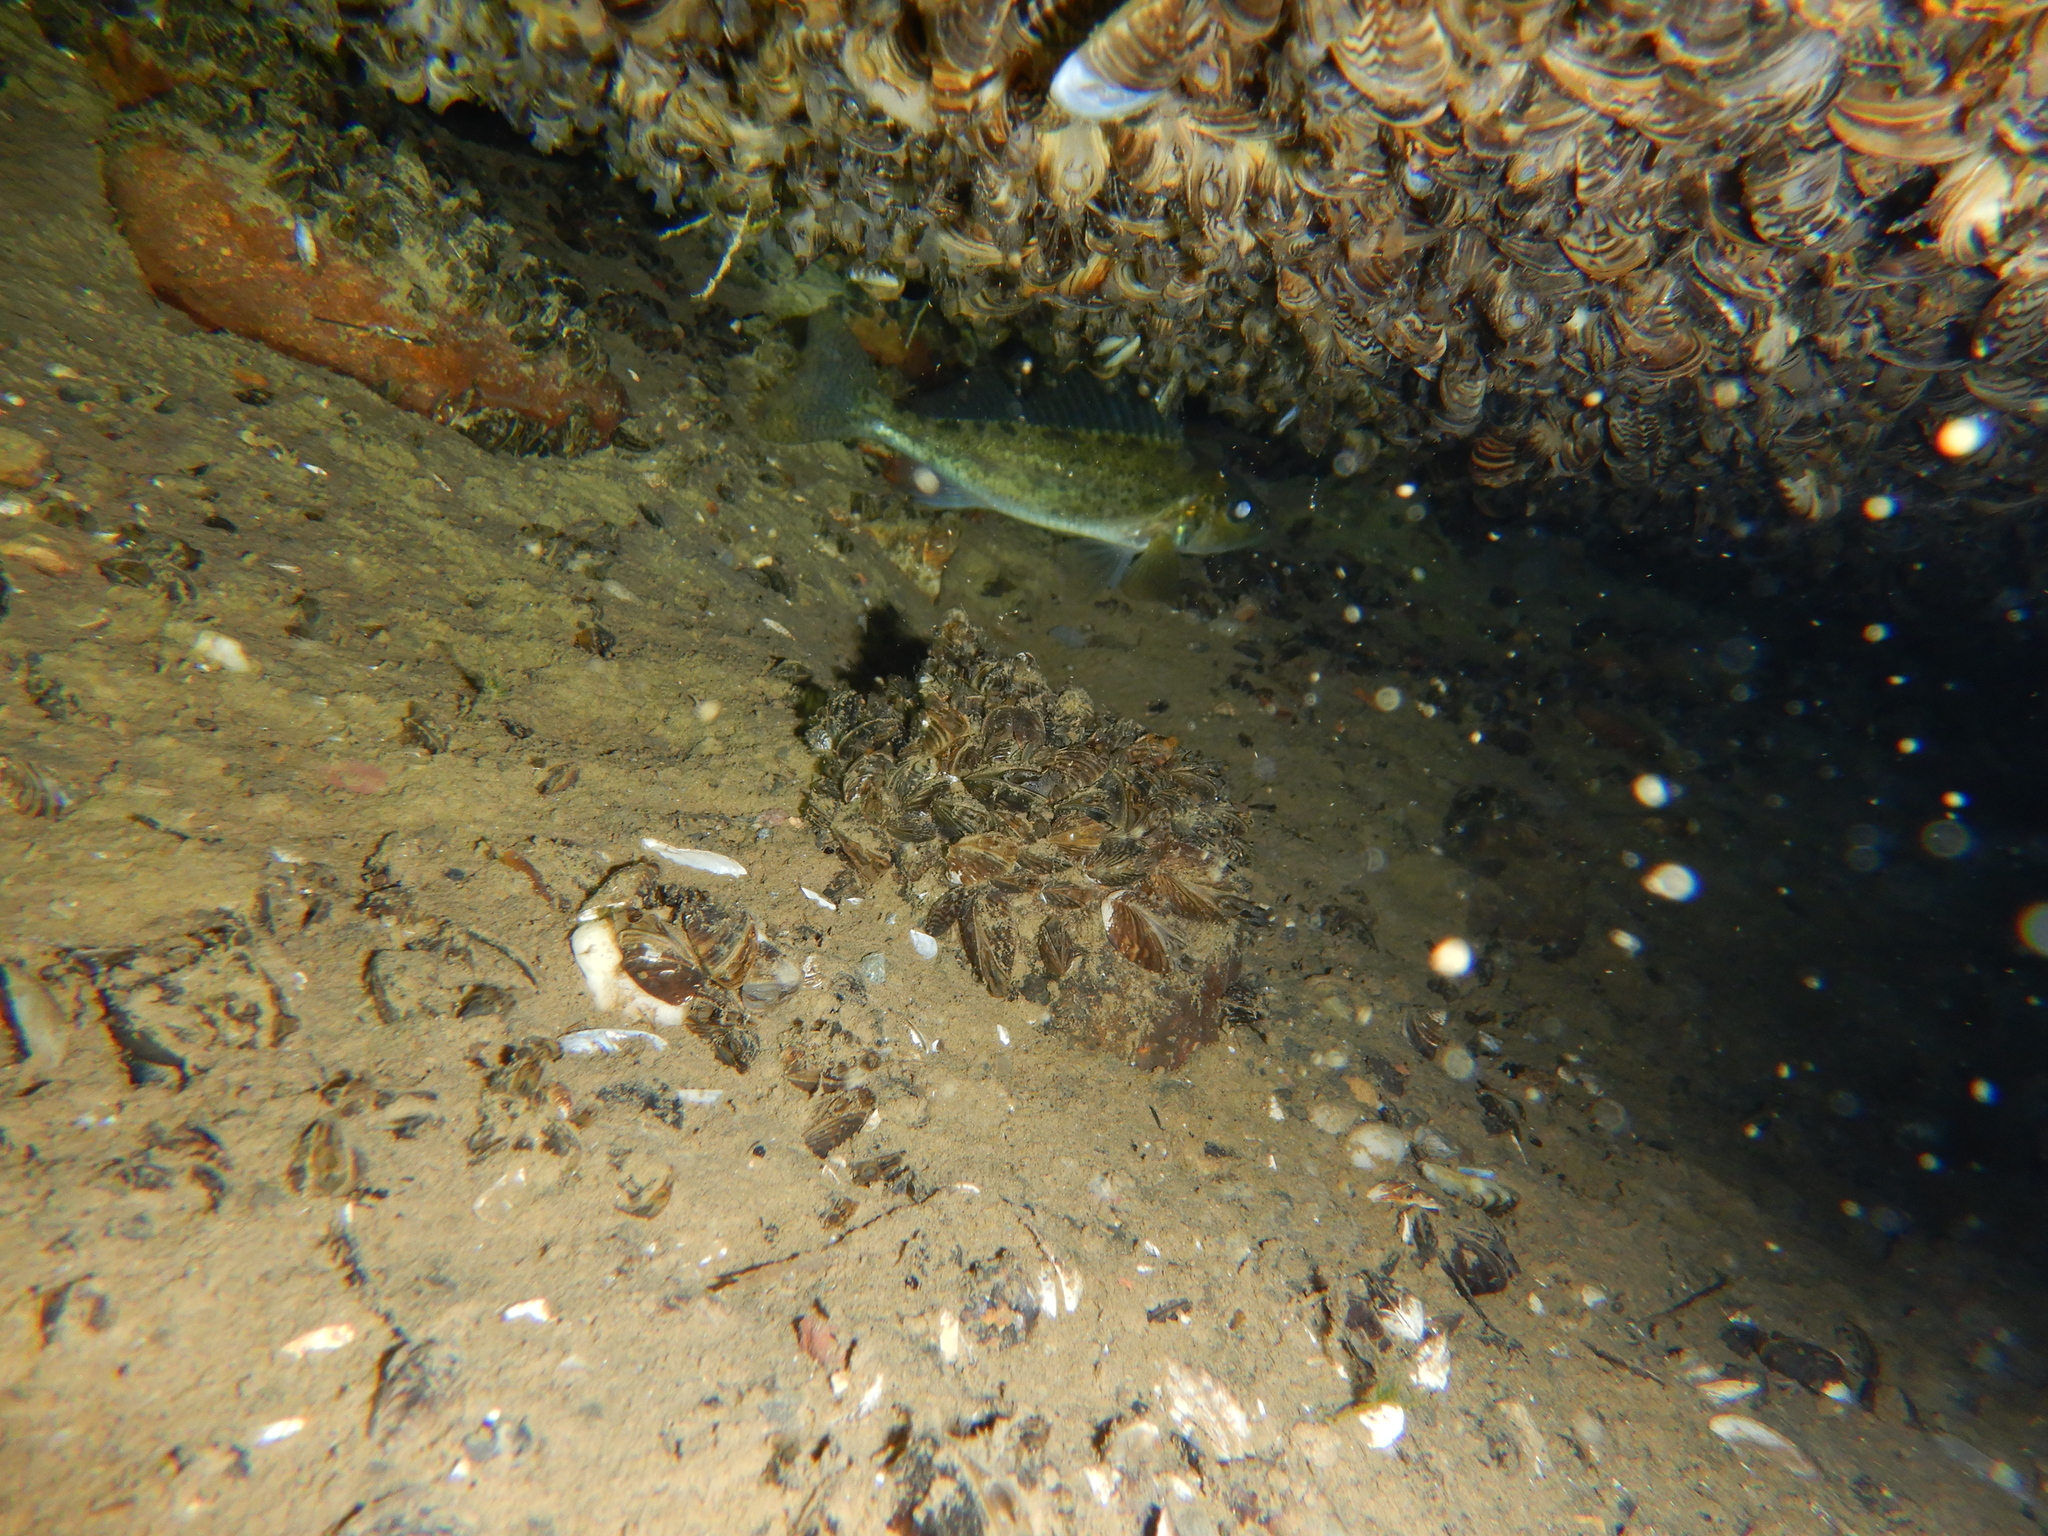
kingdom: Animalia
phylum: Chordata
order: Perciformes
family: Percidae
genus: Gymnocephalus
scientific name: Gymnocephalus cernua
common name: Ruffe
